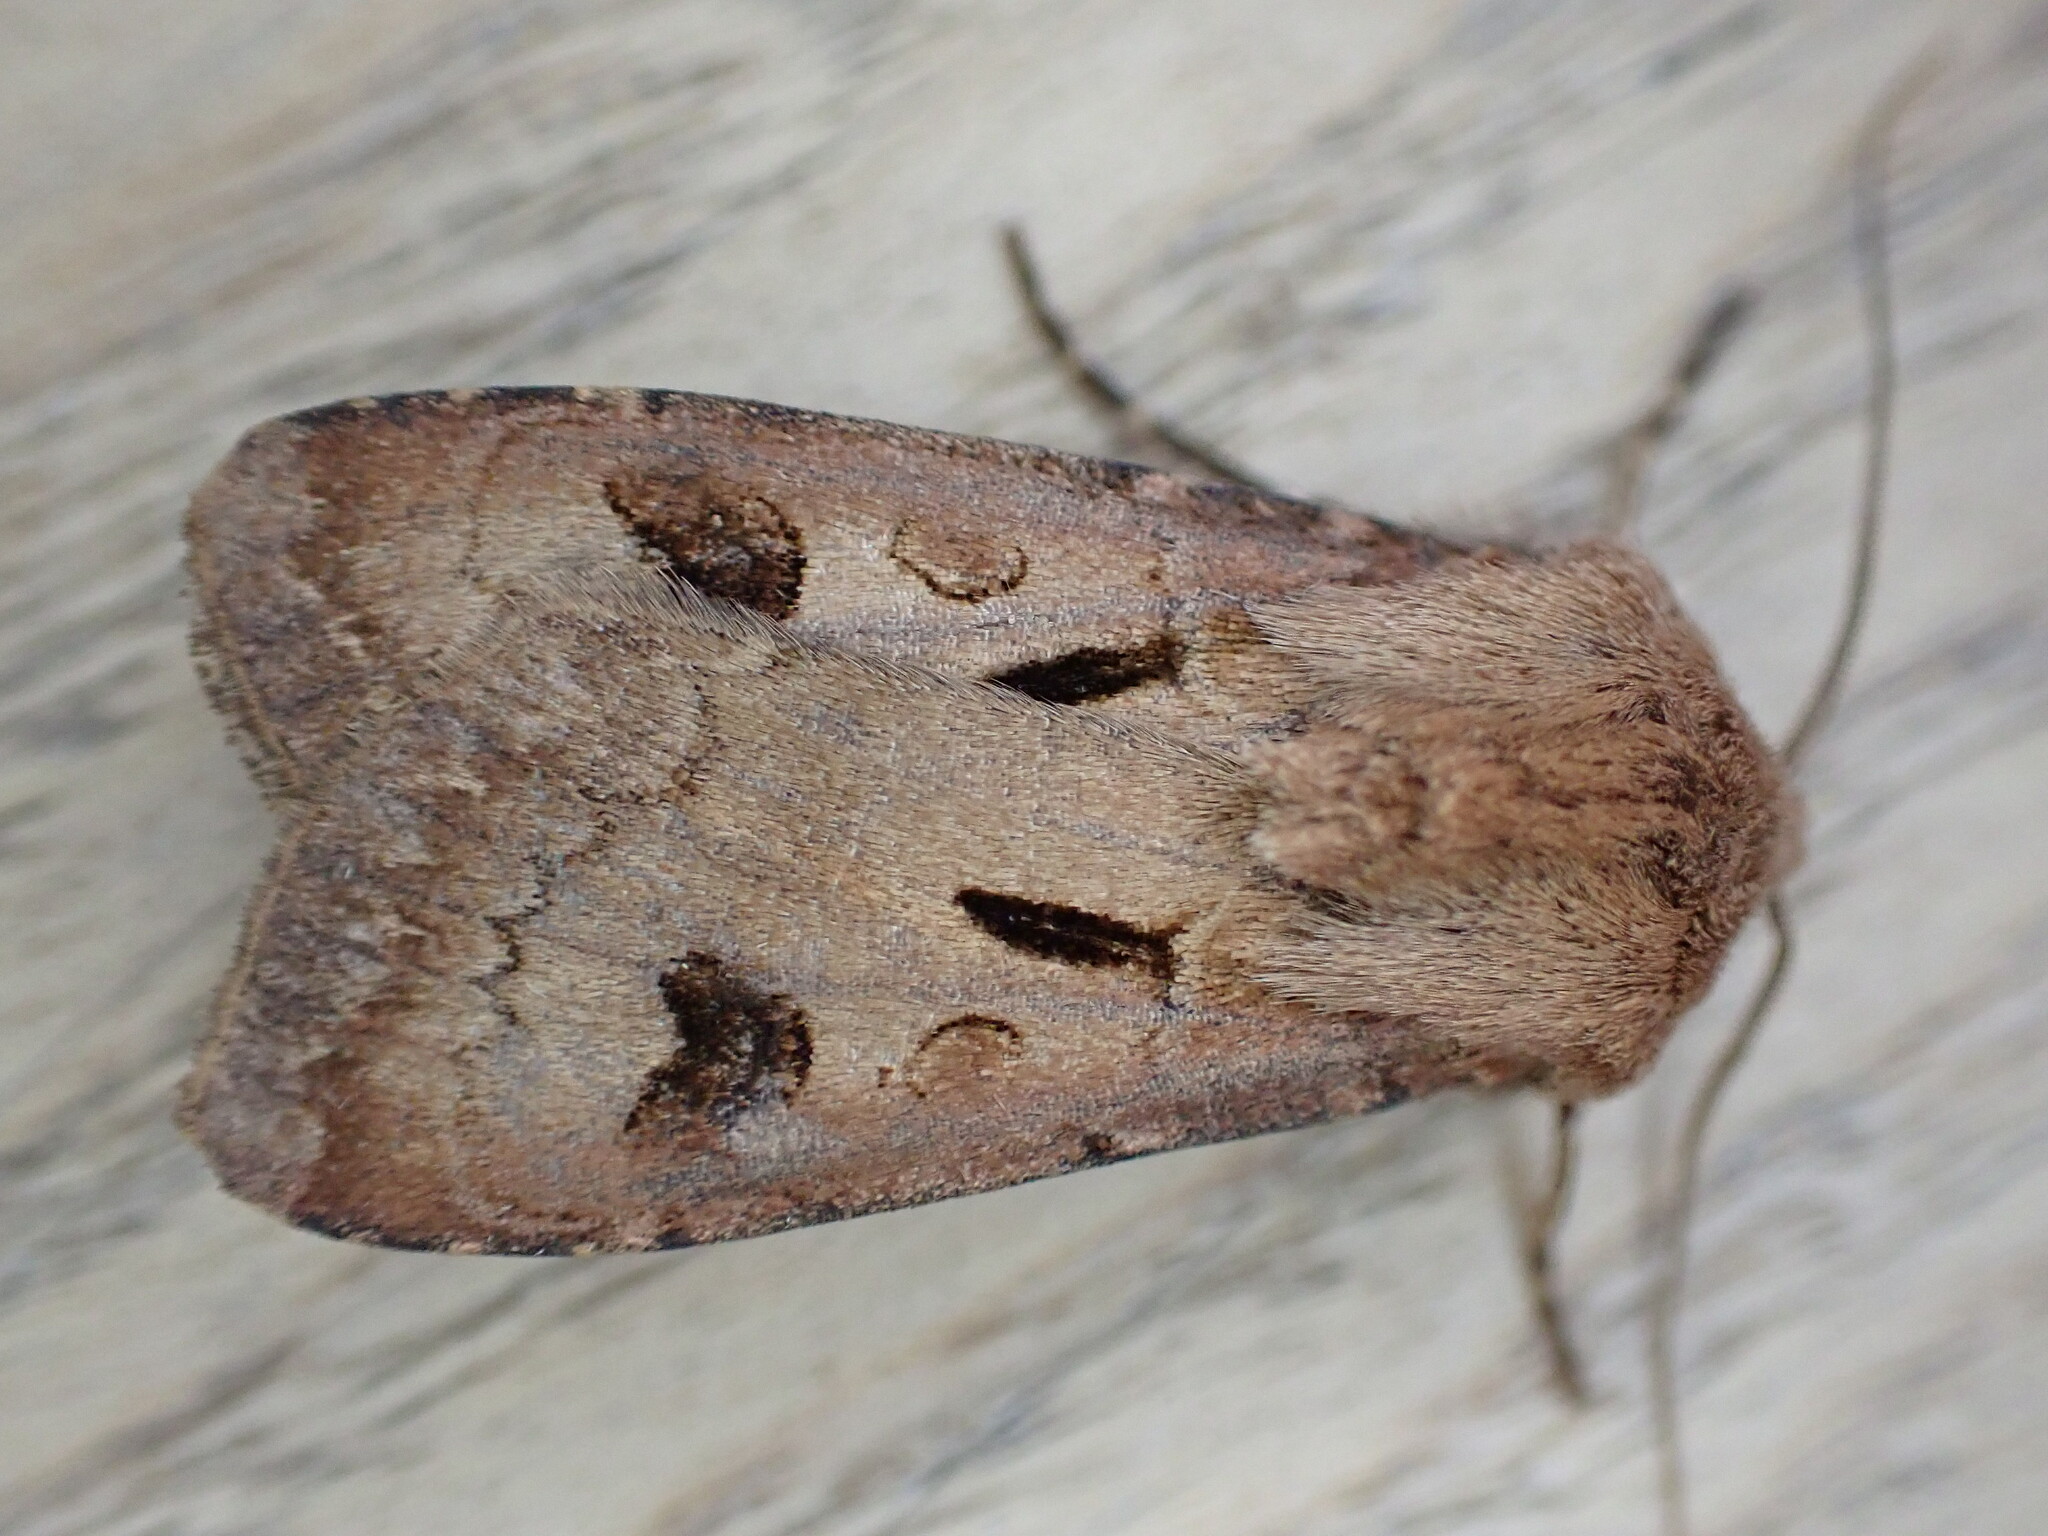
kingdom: Animalia
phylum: Arthropoda
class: Insecta
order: Lepidoptera
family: Noctuidae
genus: Agrotis
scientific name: Agrotis exclamationis
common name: Heart and dart
